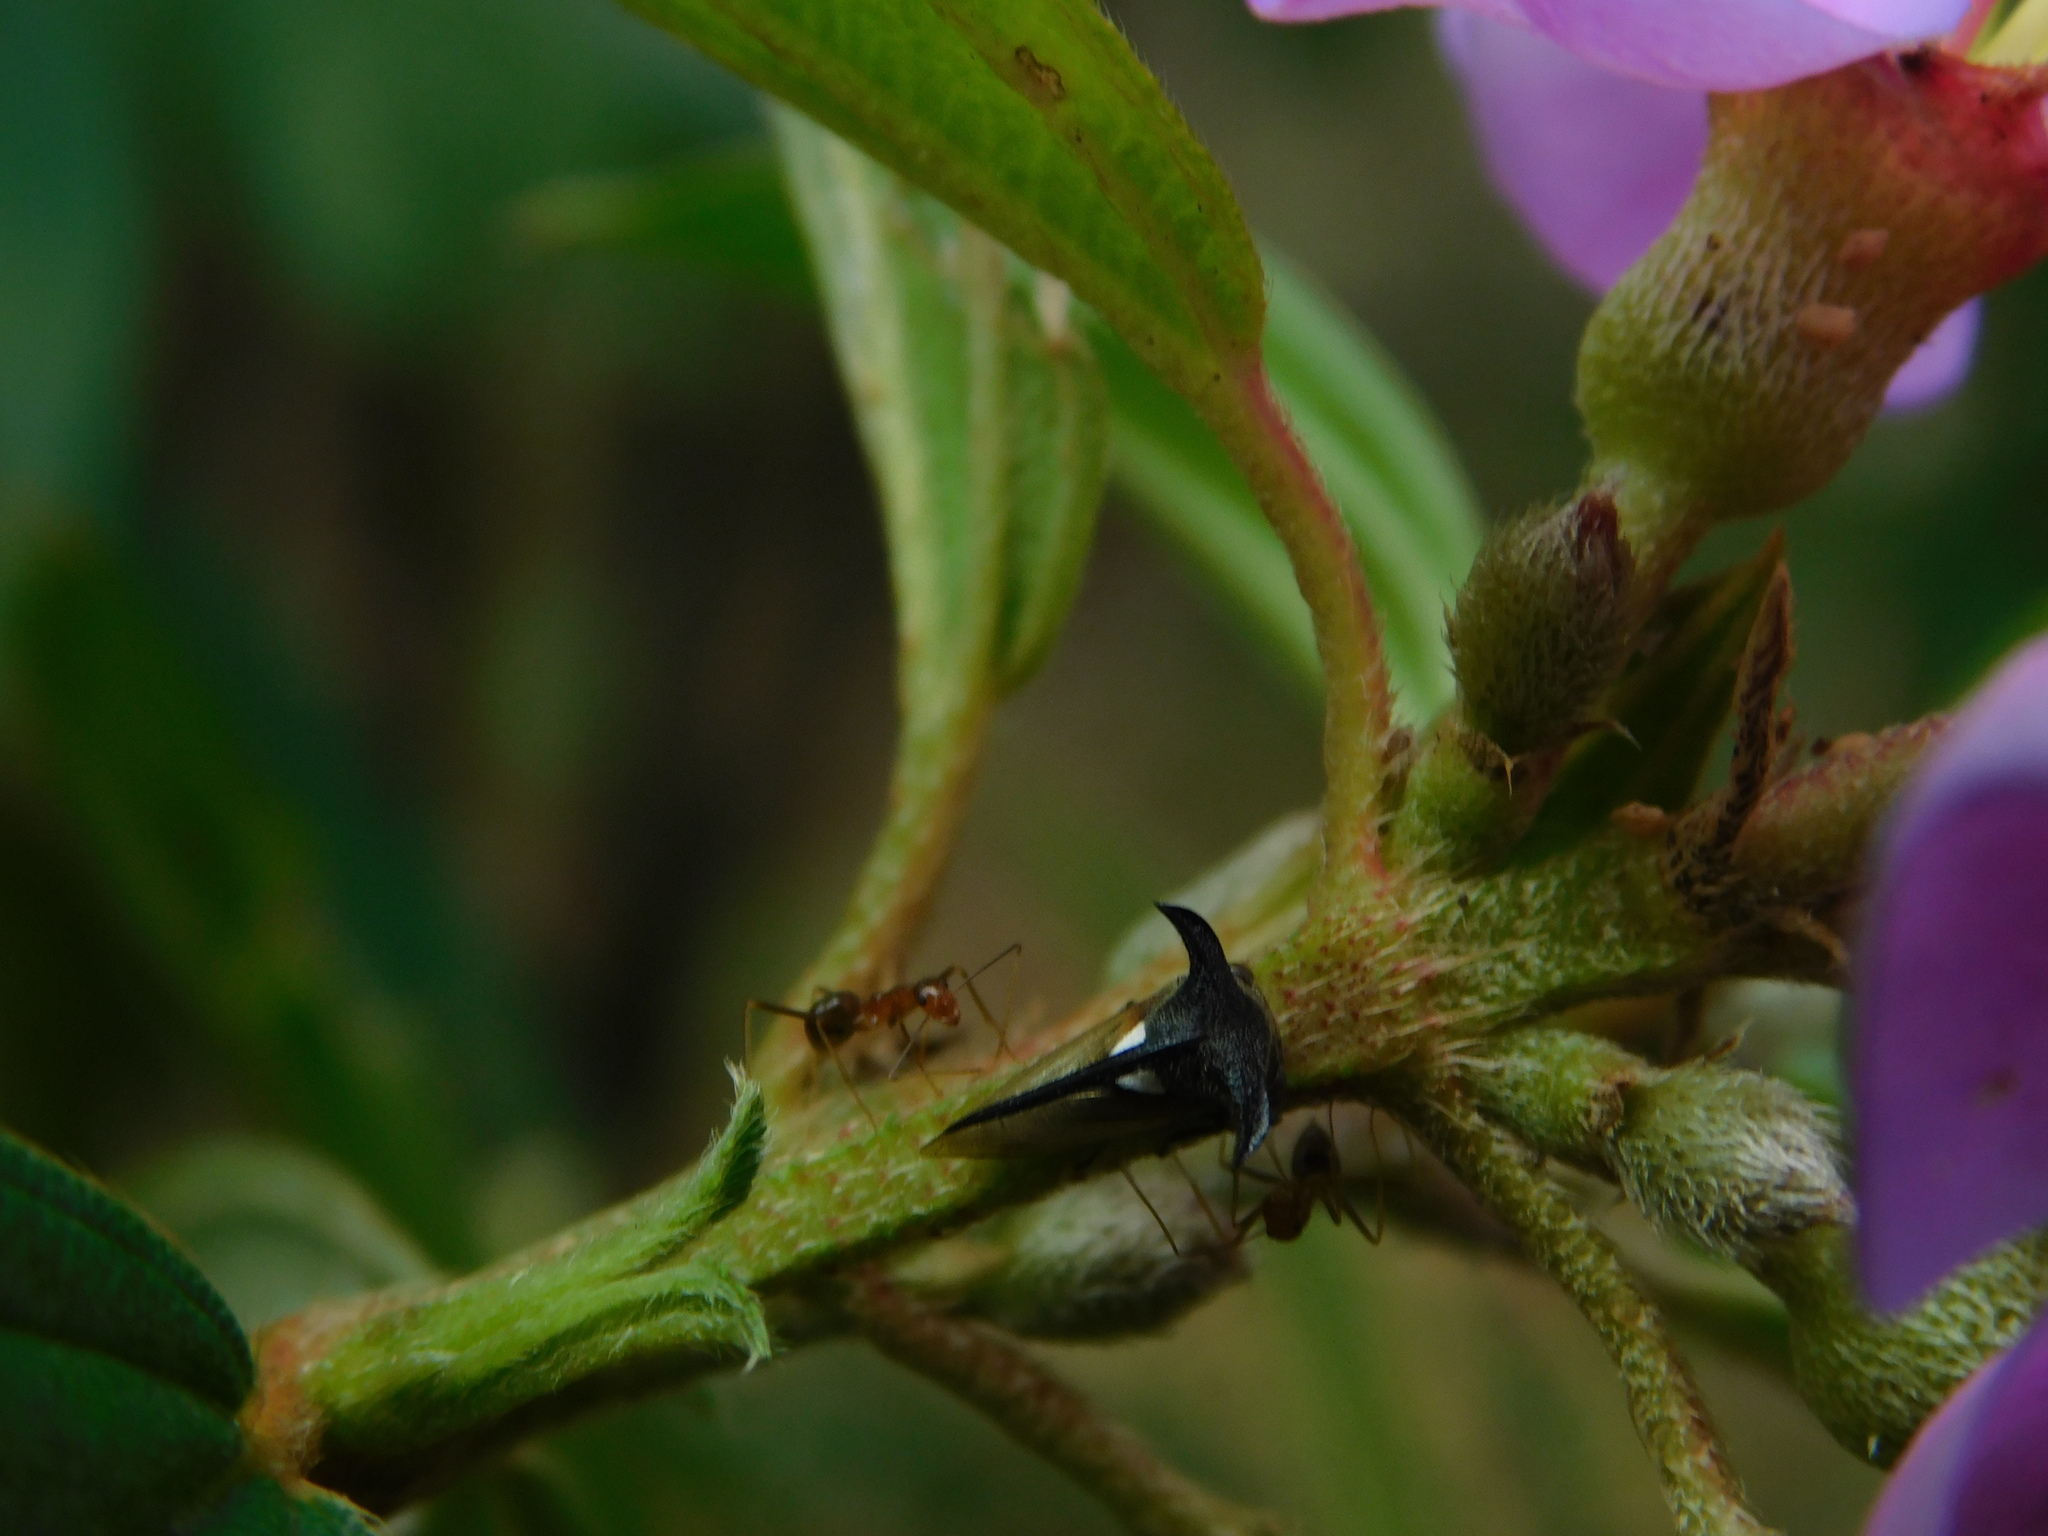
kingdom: Animalia
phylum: Arthropoda
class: Insecta
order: Hemiptera
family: Membracidae
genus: Leptocentrus
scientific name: Leptocentrus taurus
